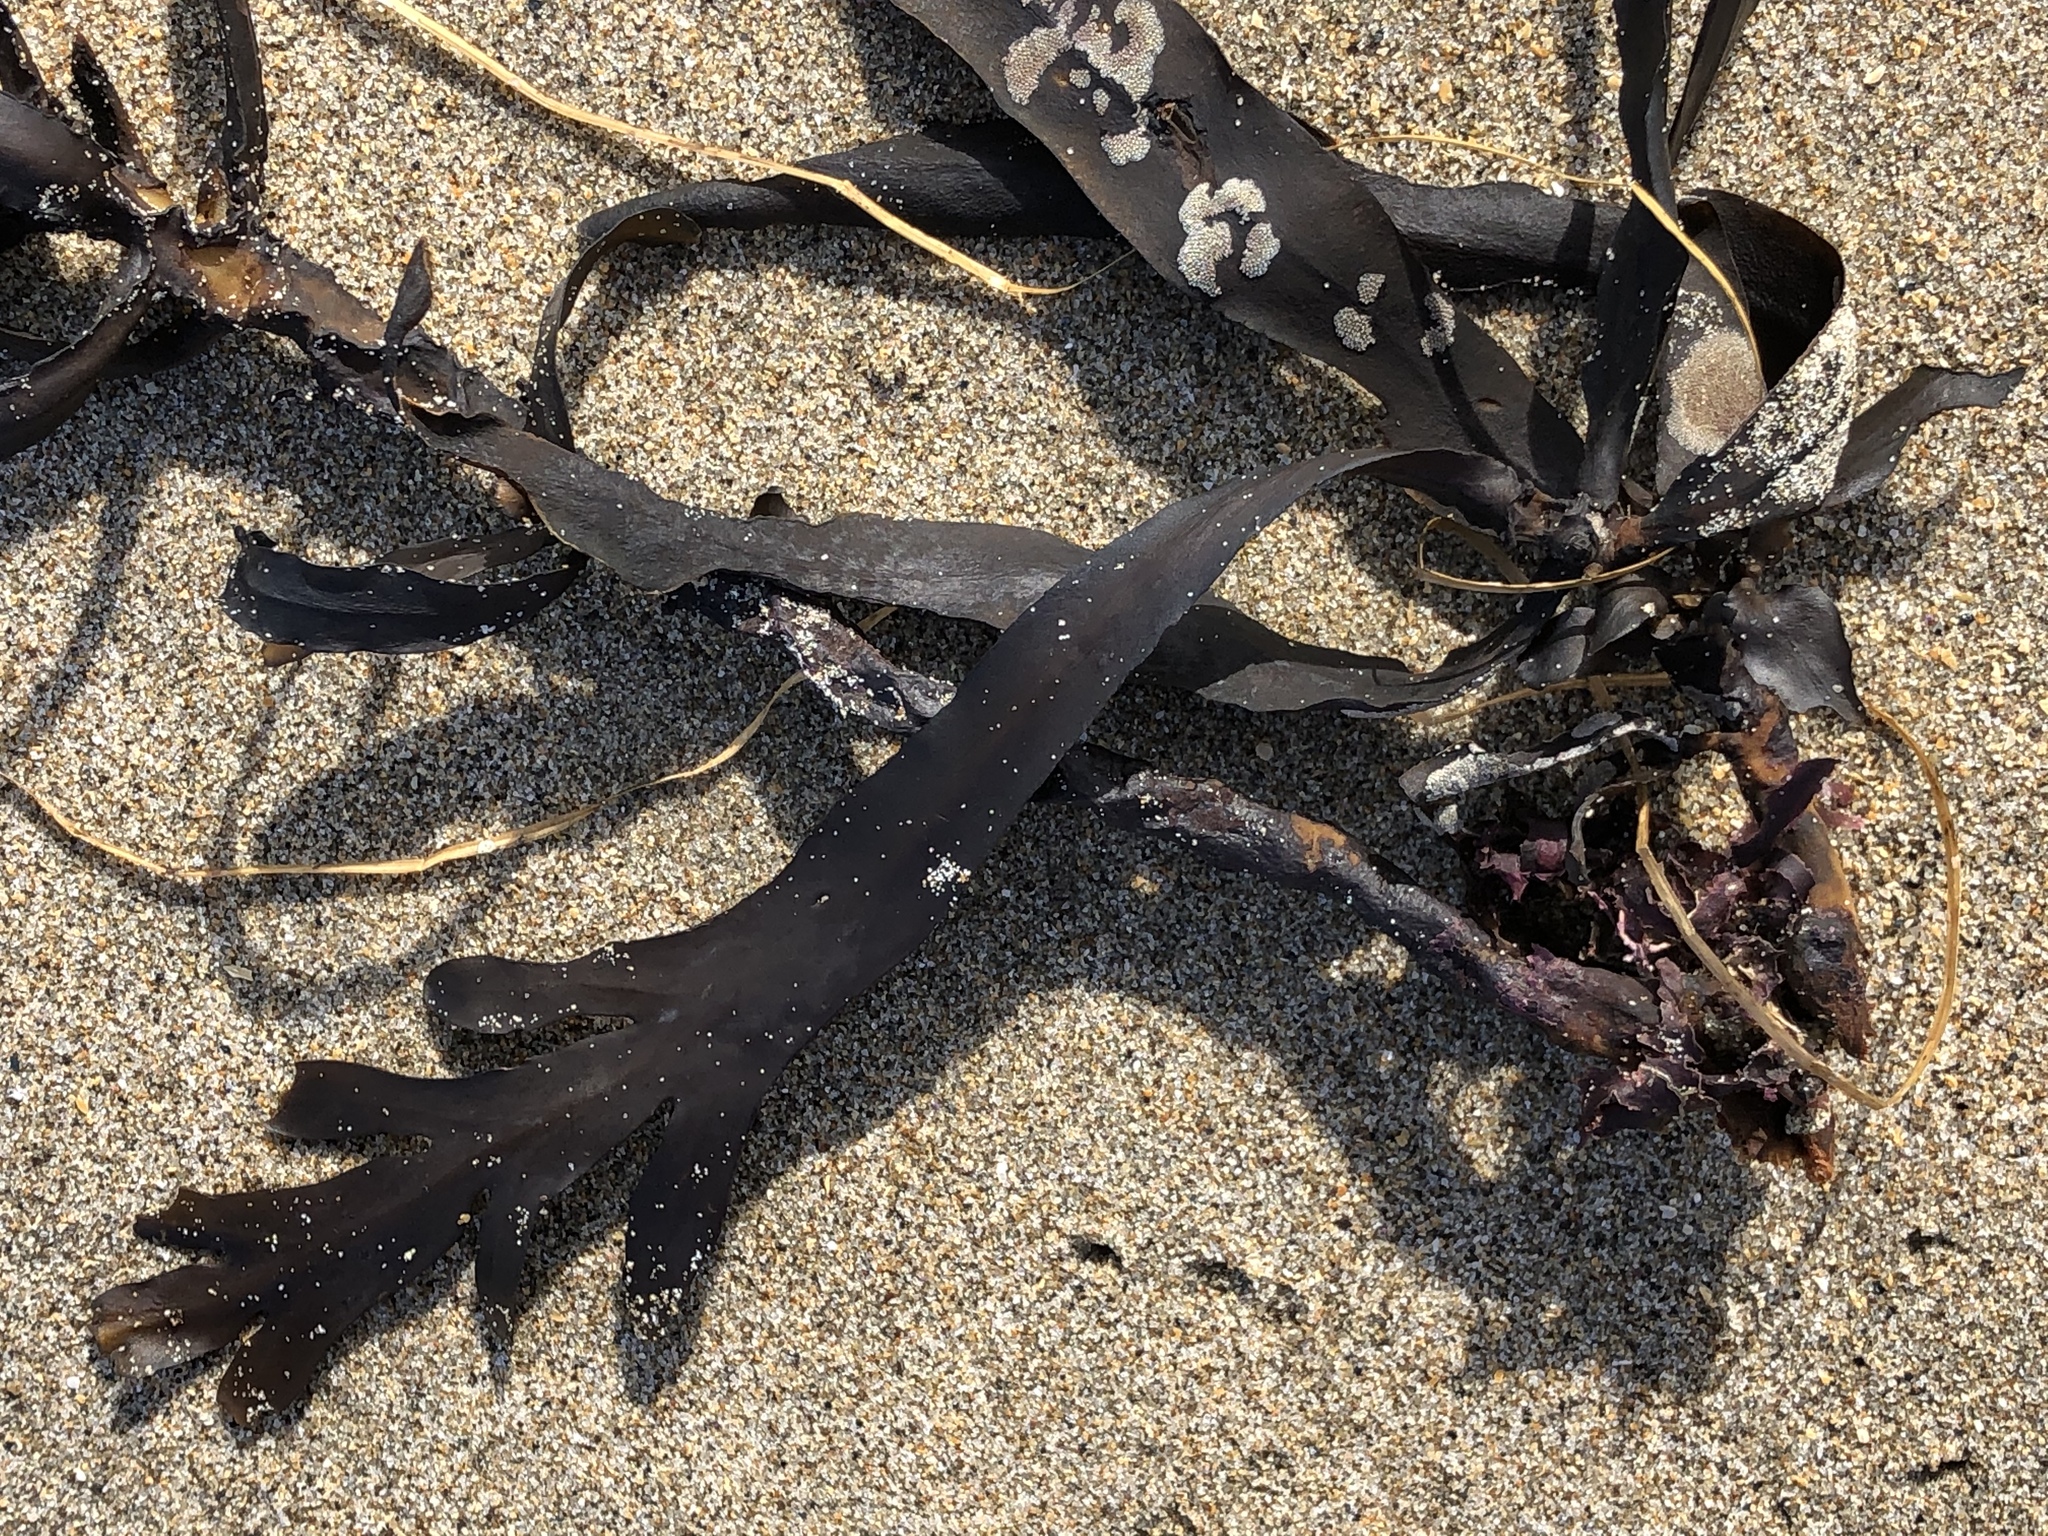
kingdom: Chromista
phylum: Ochrophyta
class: Phaeophyceae
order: Fucales
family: Sargassaceae
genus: Stephanocystis
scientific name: Stephanocystis
